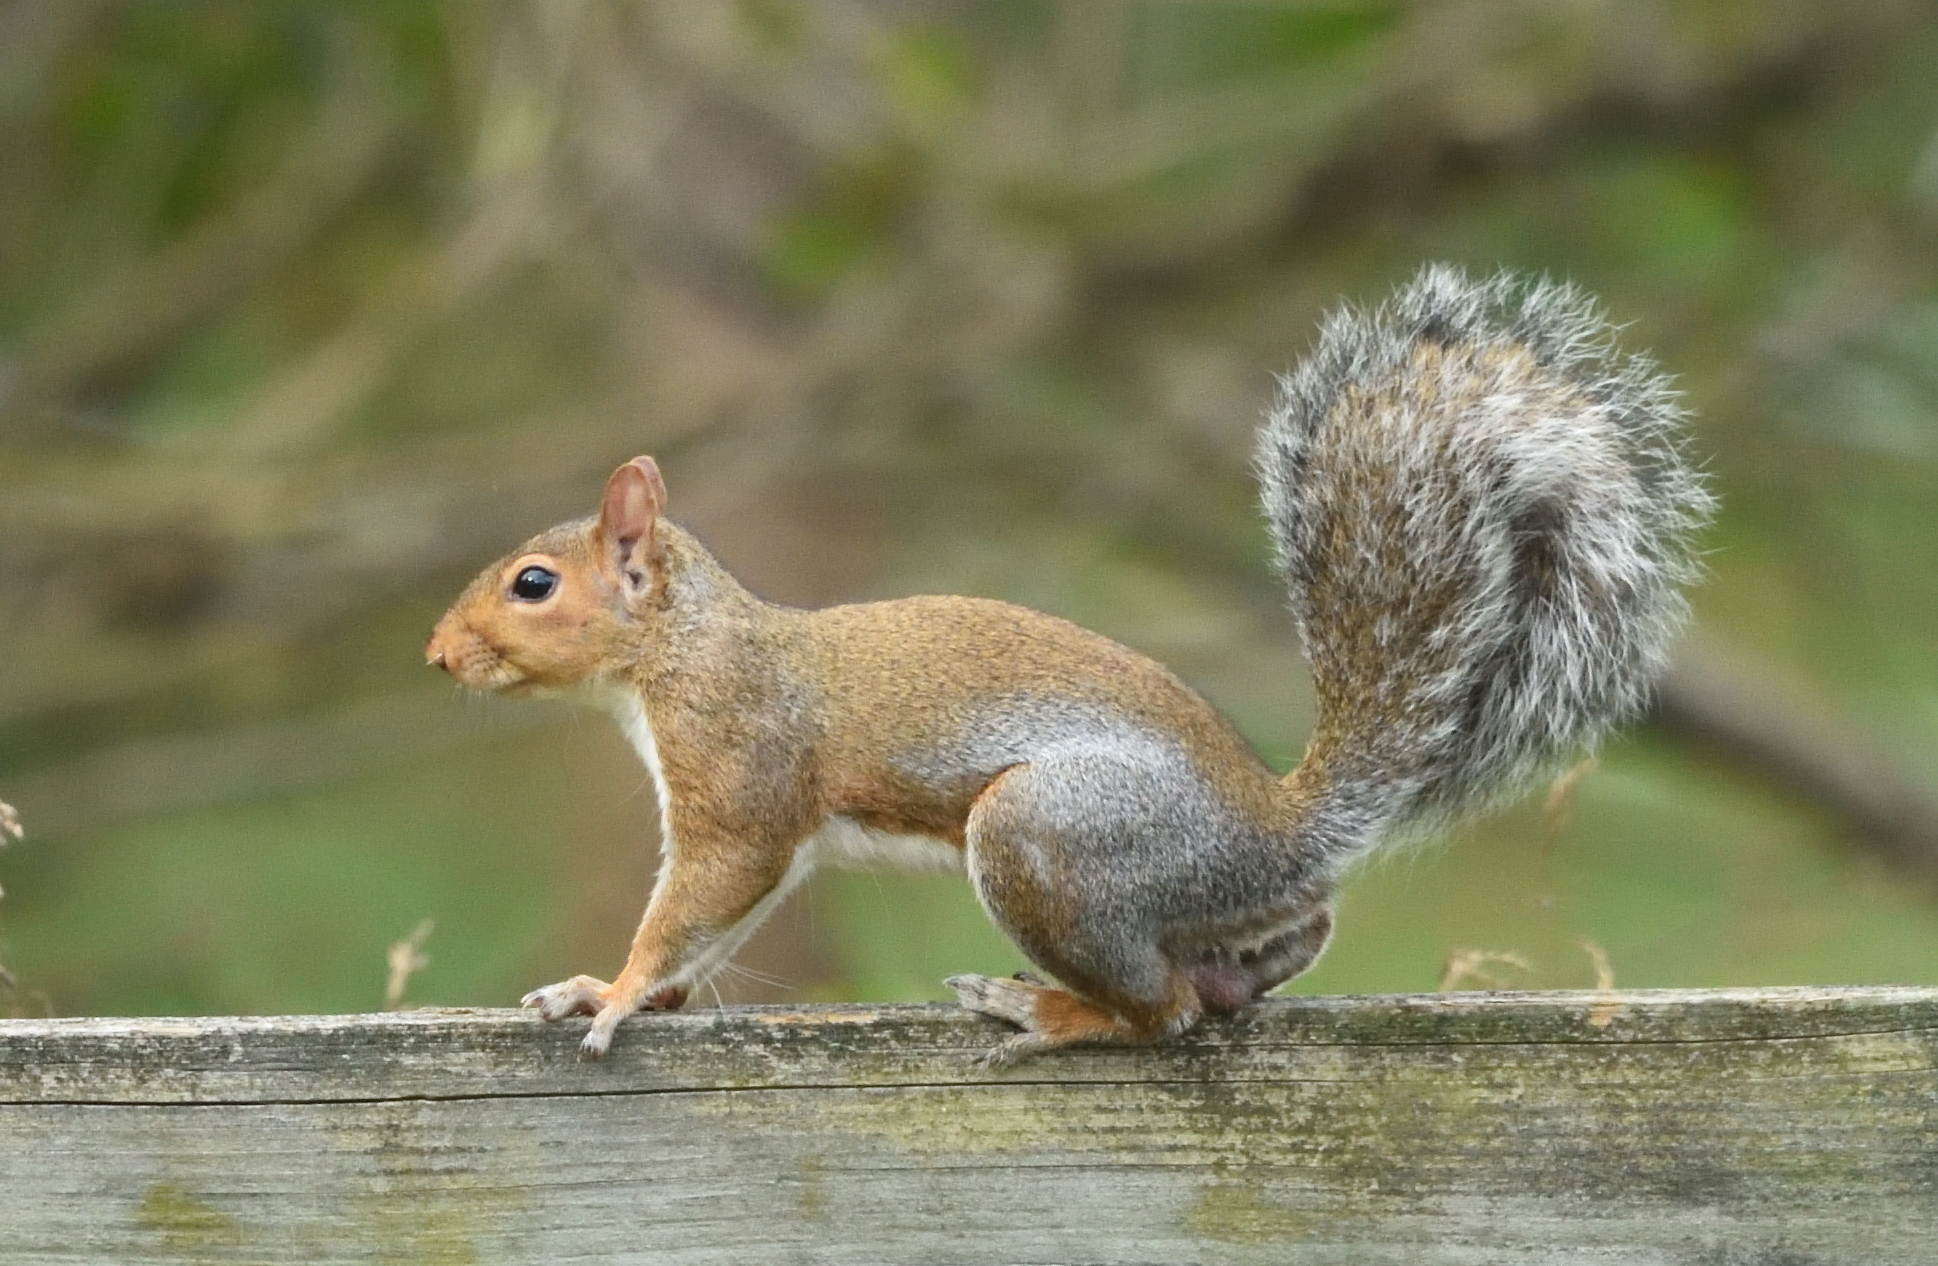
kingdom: Animalia
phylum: Chordata
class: Mammalia
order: Rodentia
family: Sciuridae
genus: Sciurus
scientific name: Sciurus carolinensis
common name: Eastern gray squirrel
